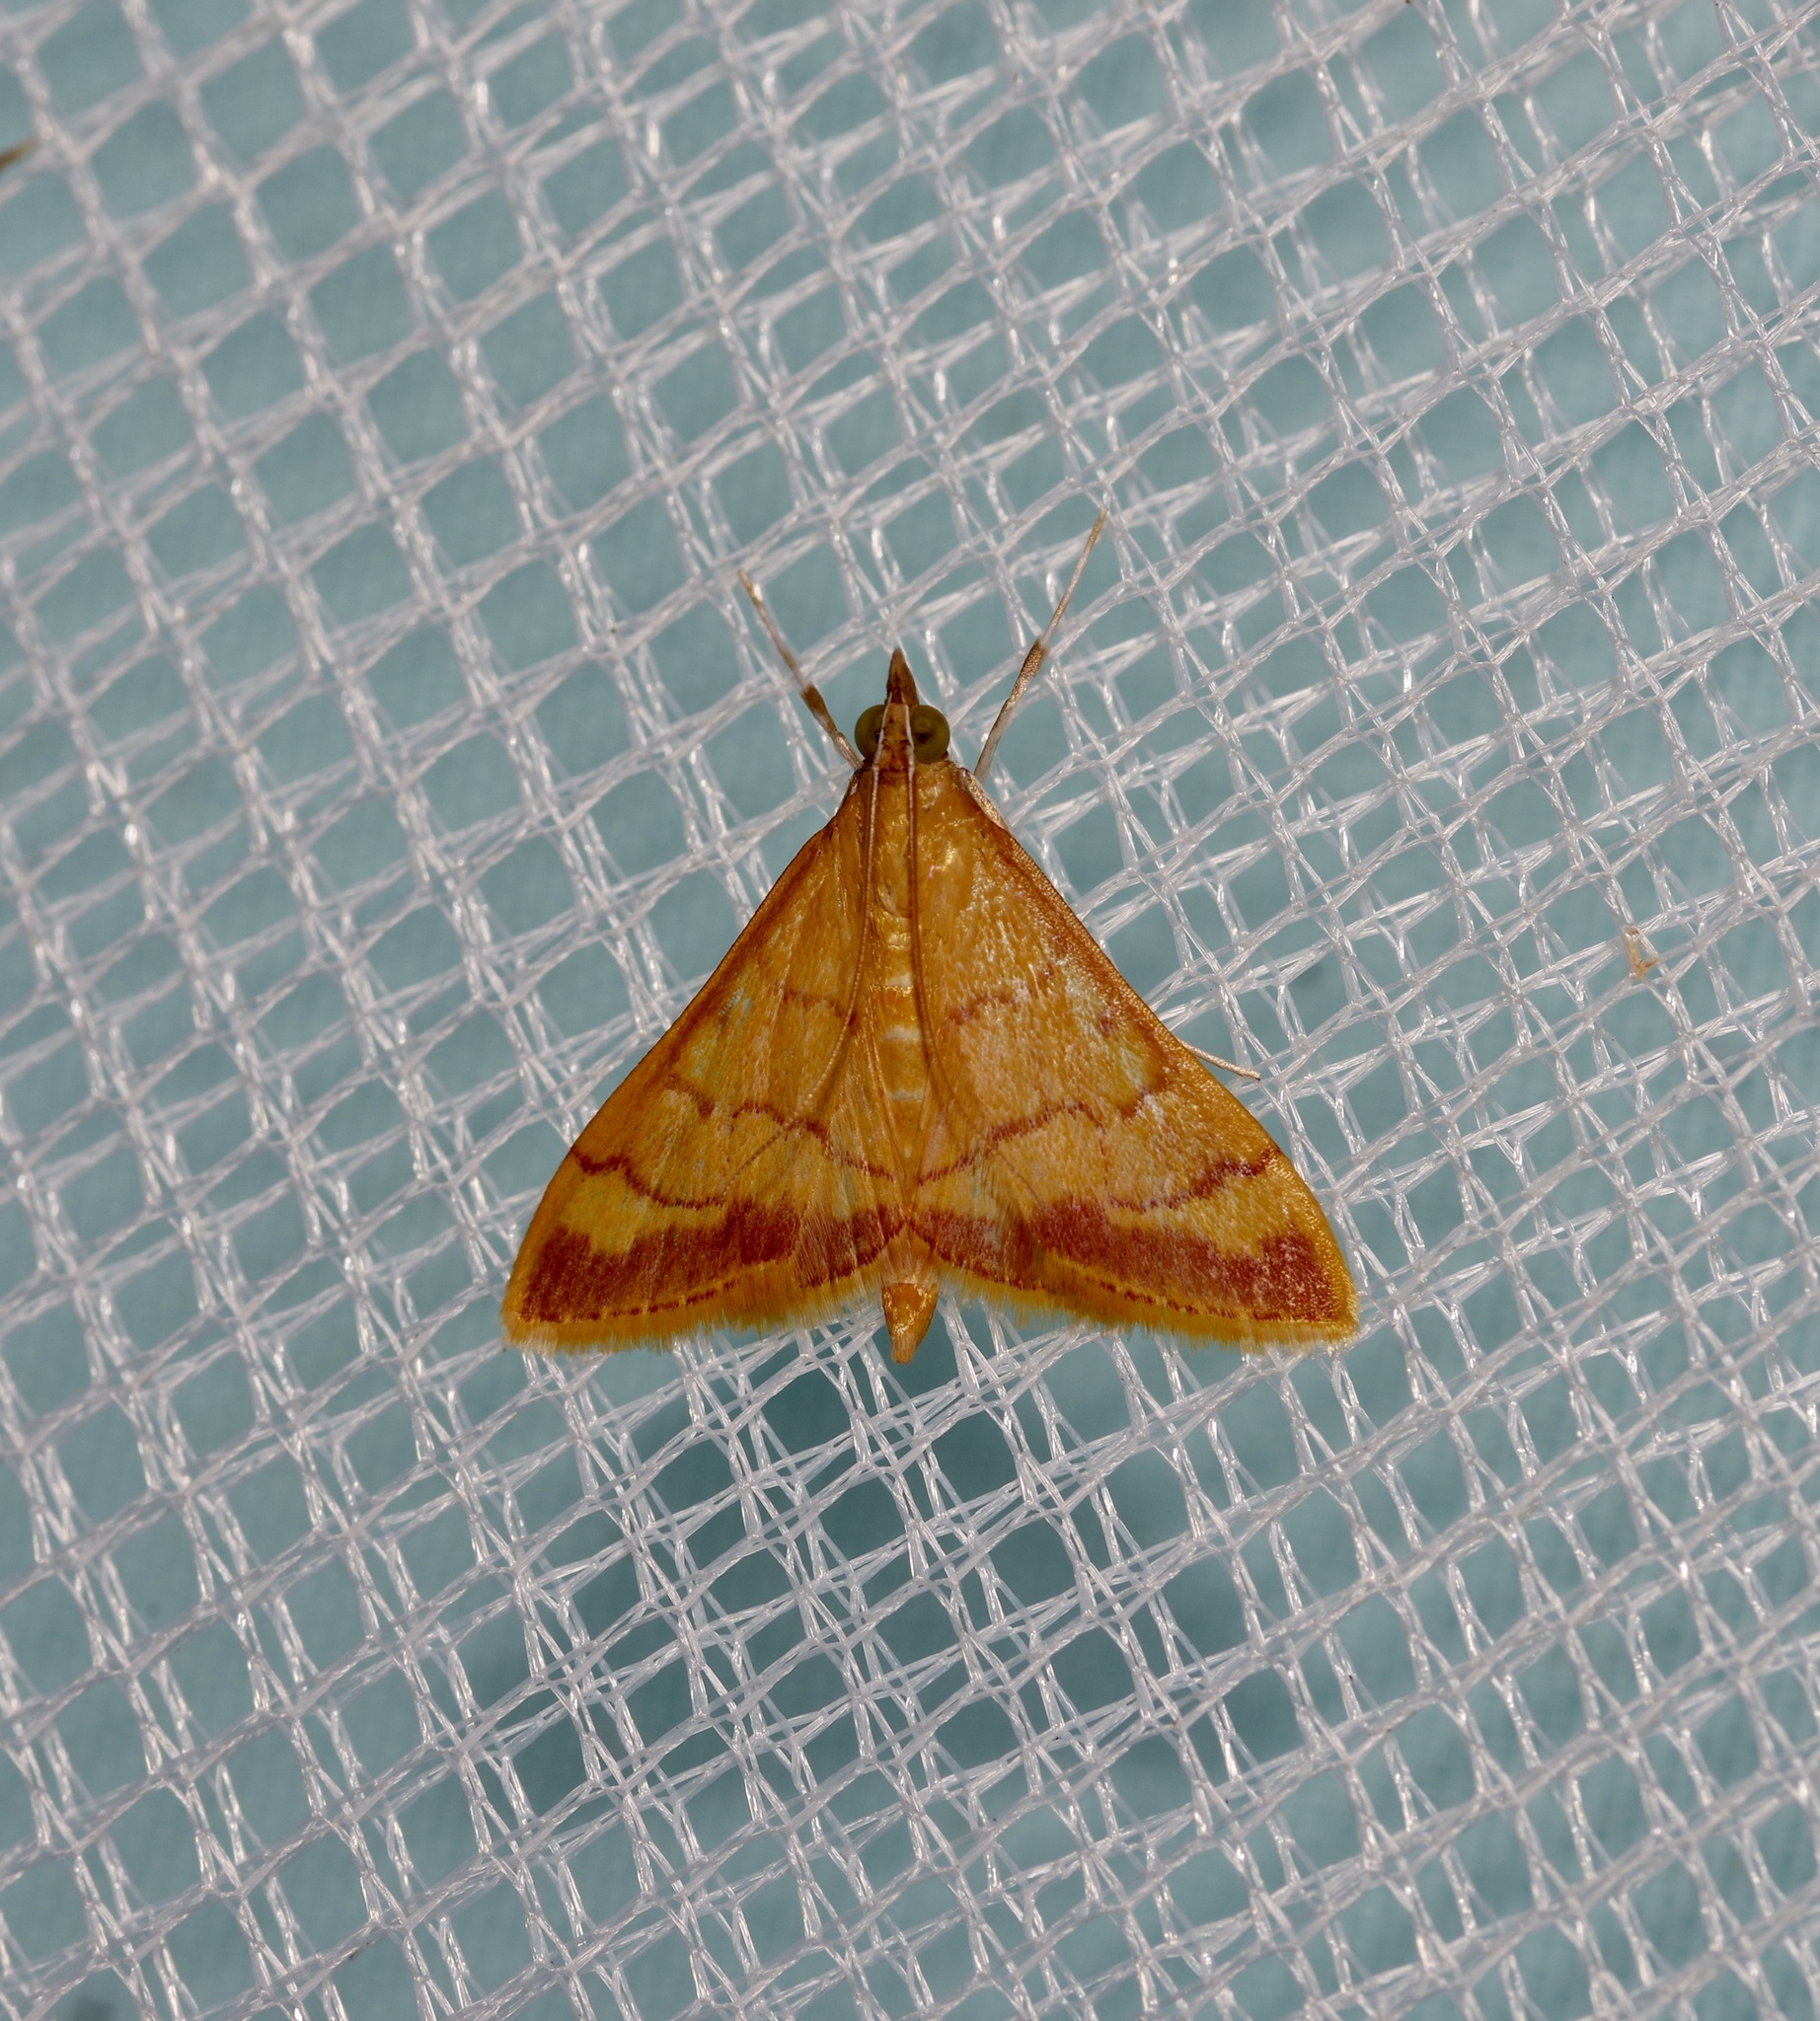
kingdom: Animalia
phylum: Arthropoda
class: Insecta
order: Lepidoptera
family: Crambidae
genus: Pyrausta
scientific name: Pyrausta pseudonythesalis
